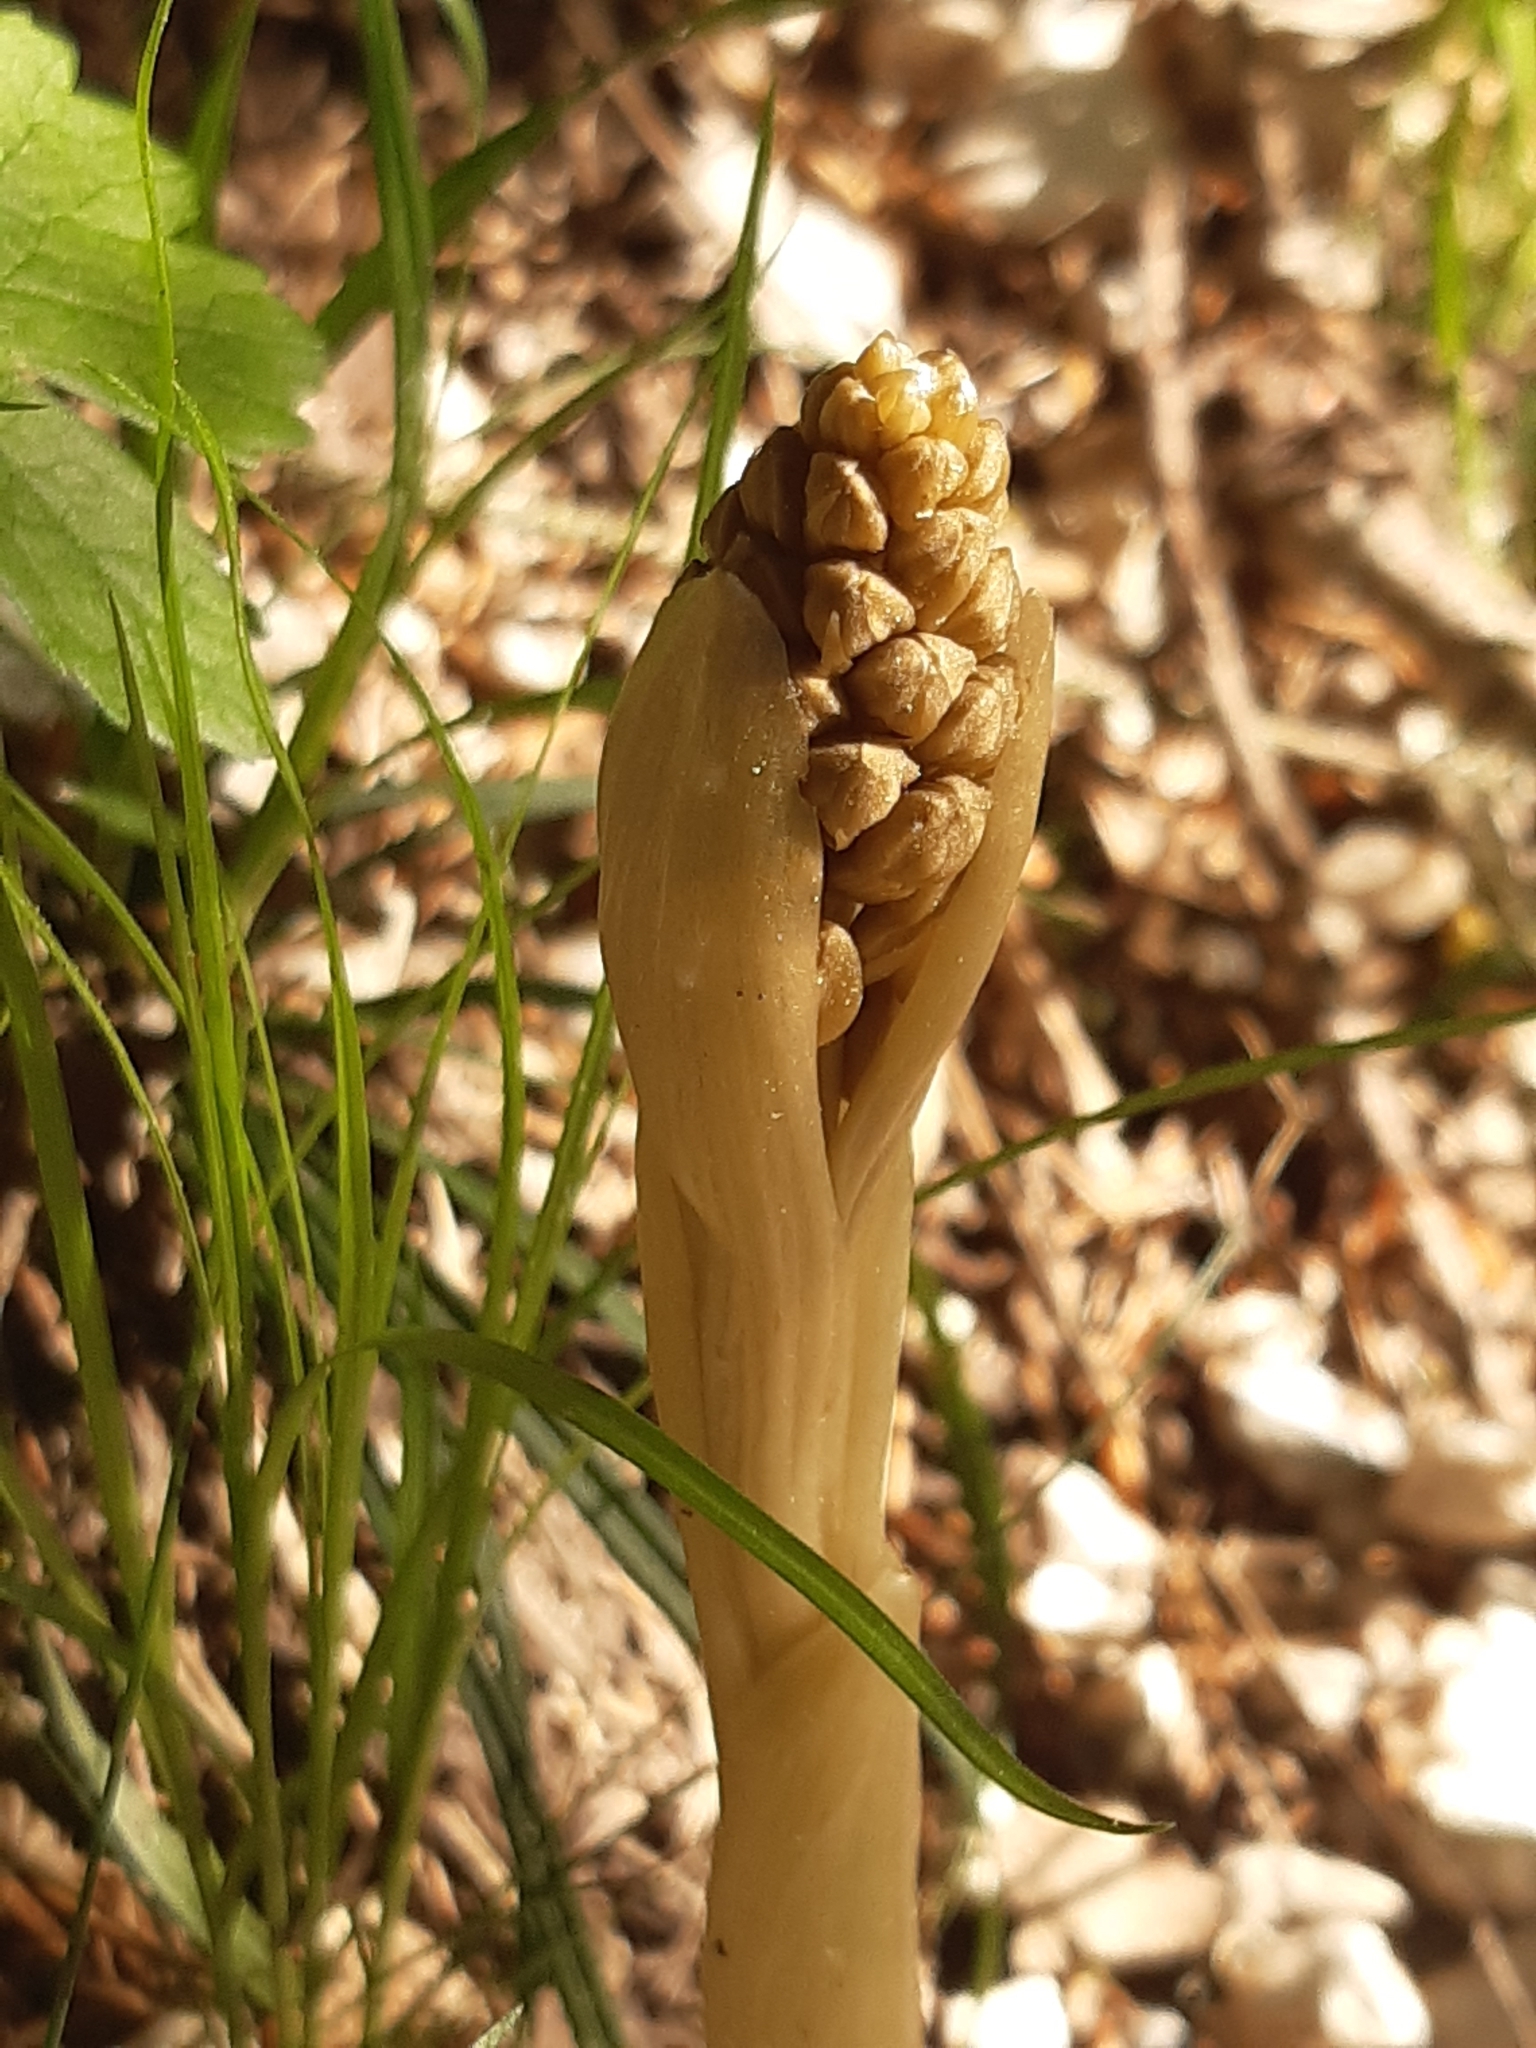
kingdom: Plantae
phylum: Tracheophyta
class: Liliopsida
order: Asparagales
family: Orchidaceae
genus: Neottia
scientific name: Neottia nidus-avis
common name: Bird's-nest orchid
